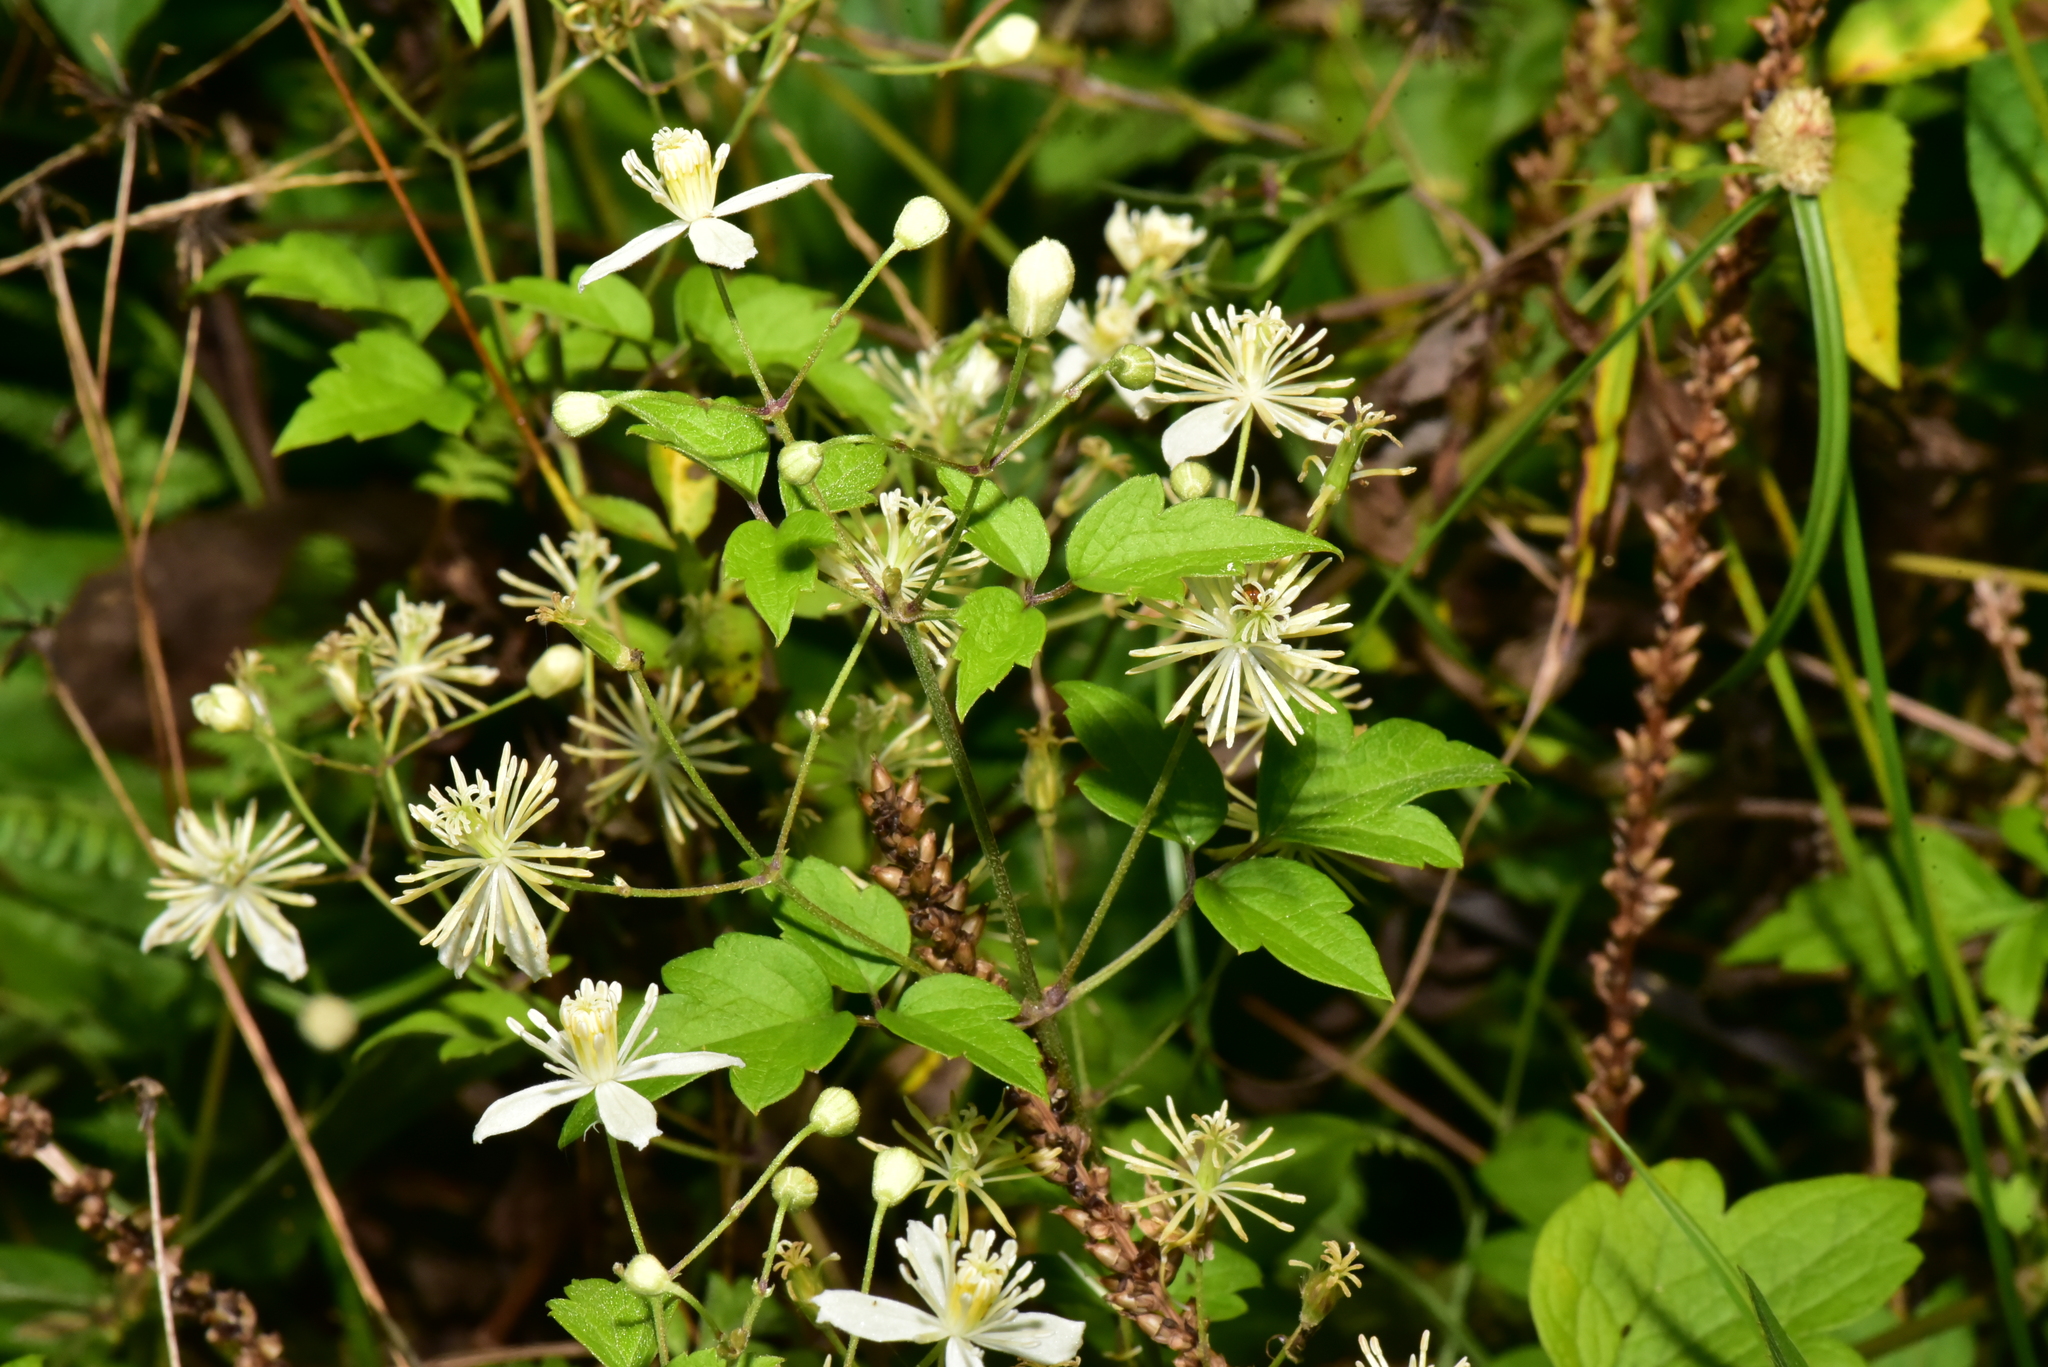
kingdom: Plantae
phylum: Tracheophyta
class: Magnoliopsida
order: Ranunculales
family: Ranunculaceae
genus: Clematis
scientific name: Clematis grata
